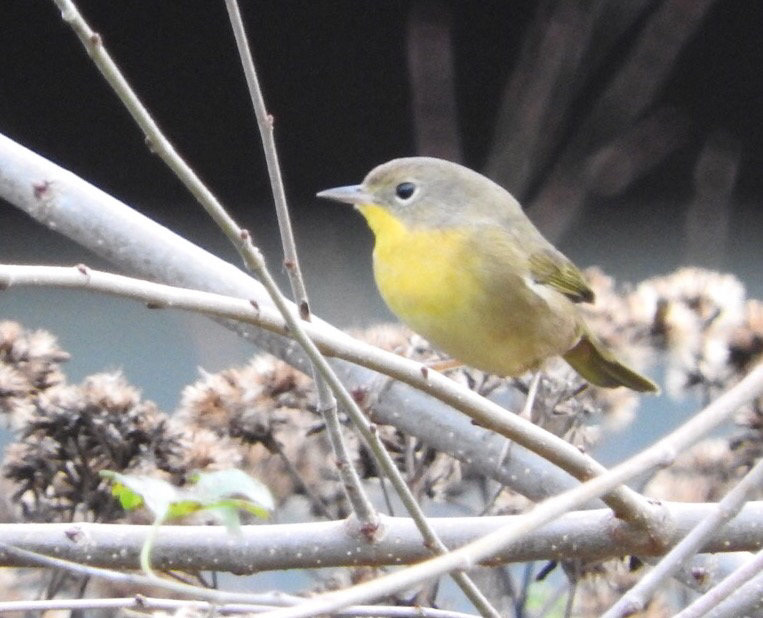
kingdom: Animalia
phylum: Chordata
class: Aves
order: Passeriformes
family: Parulidae
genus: Geothlypis
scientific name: Geothlypis trichas
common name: Common yellowthroat
